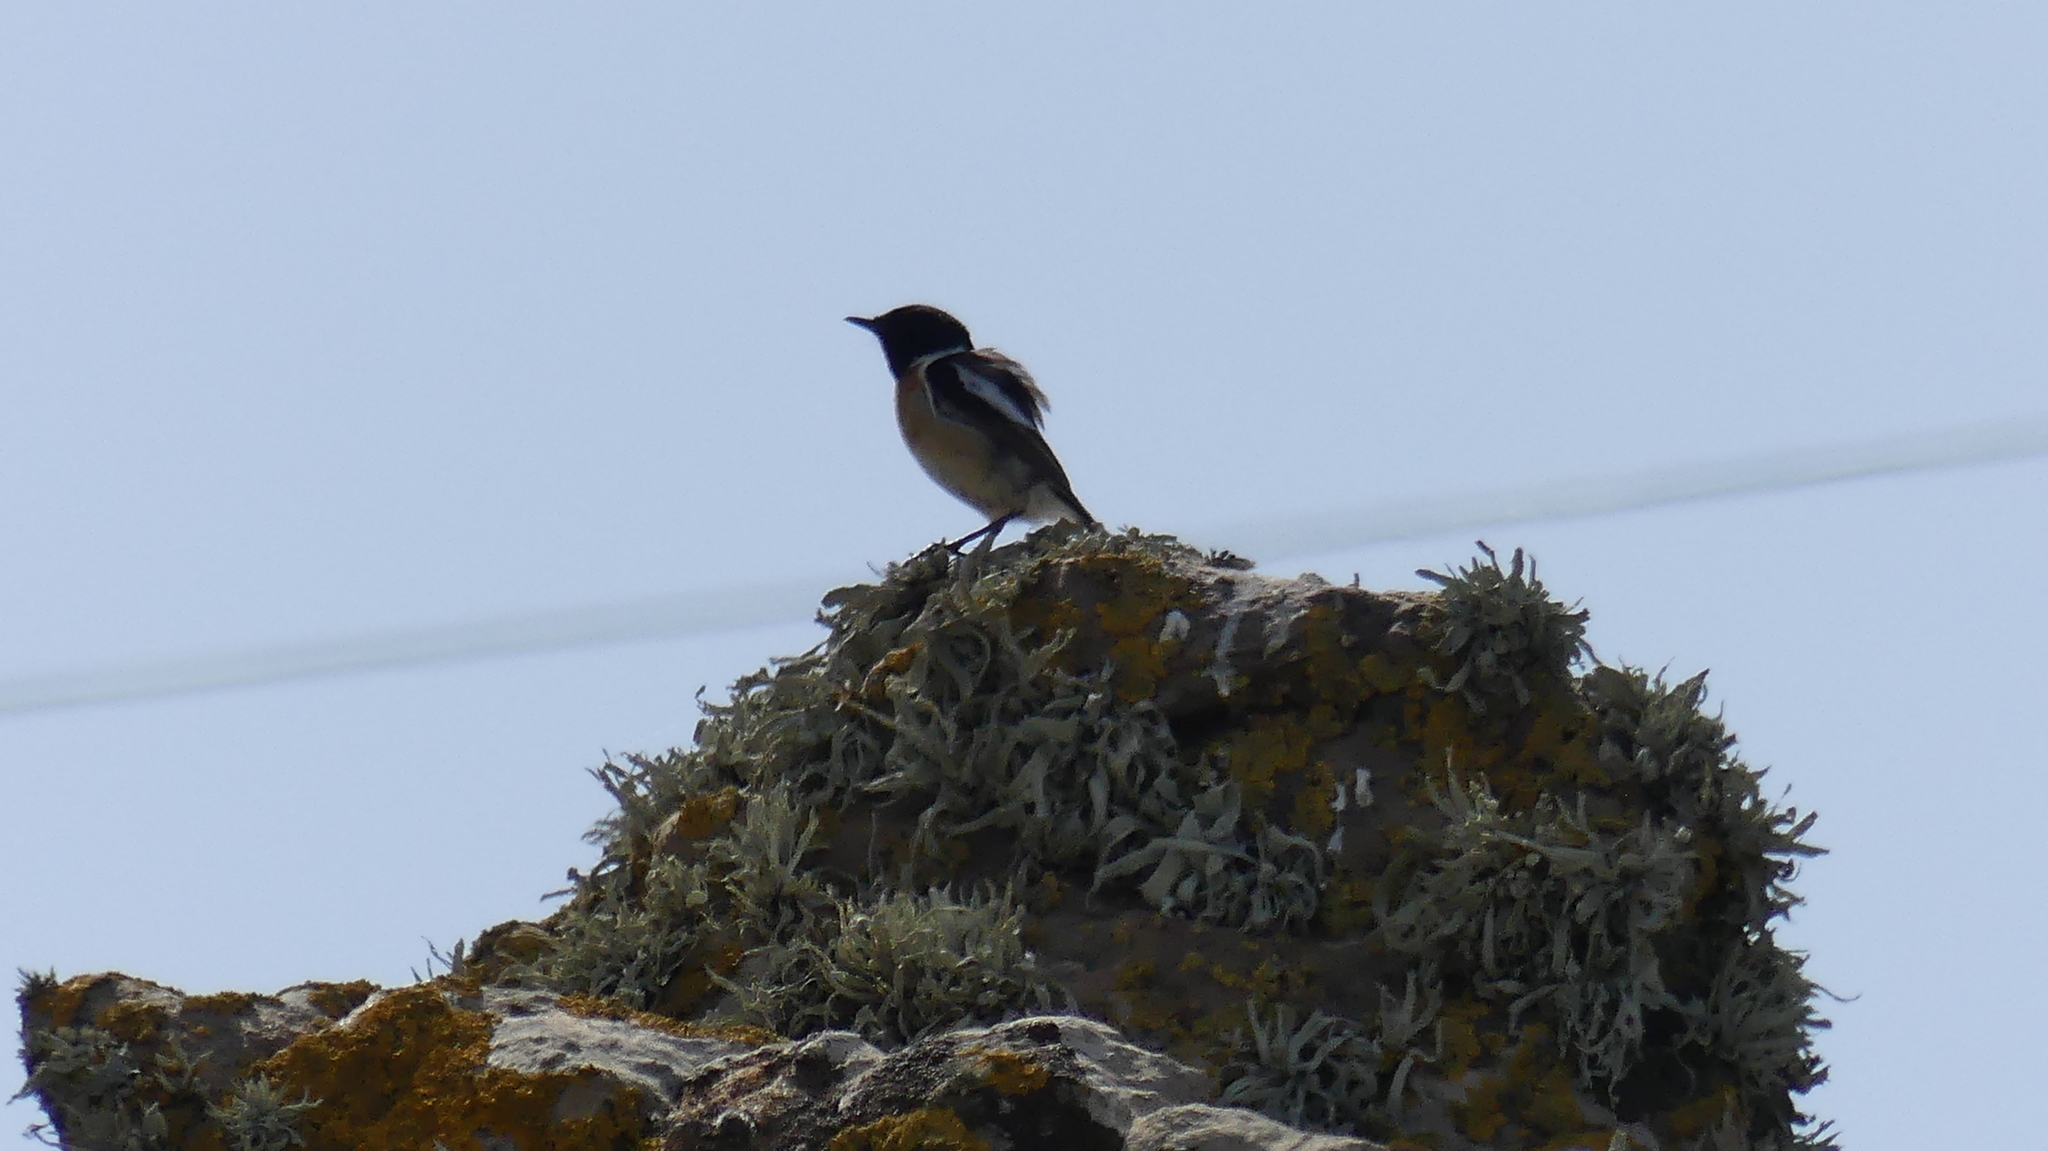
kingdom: Animalia
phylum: Chordata
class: Aves
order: Passeriformes
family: Muscicapidae
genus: Saxicola
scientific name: Saxicola rubicola
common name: European stonechat
